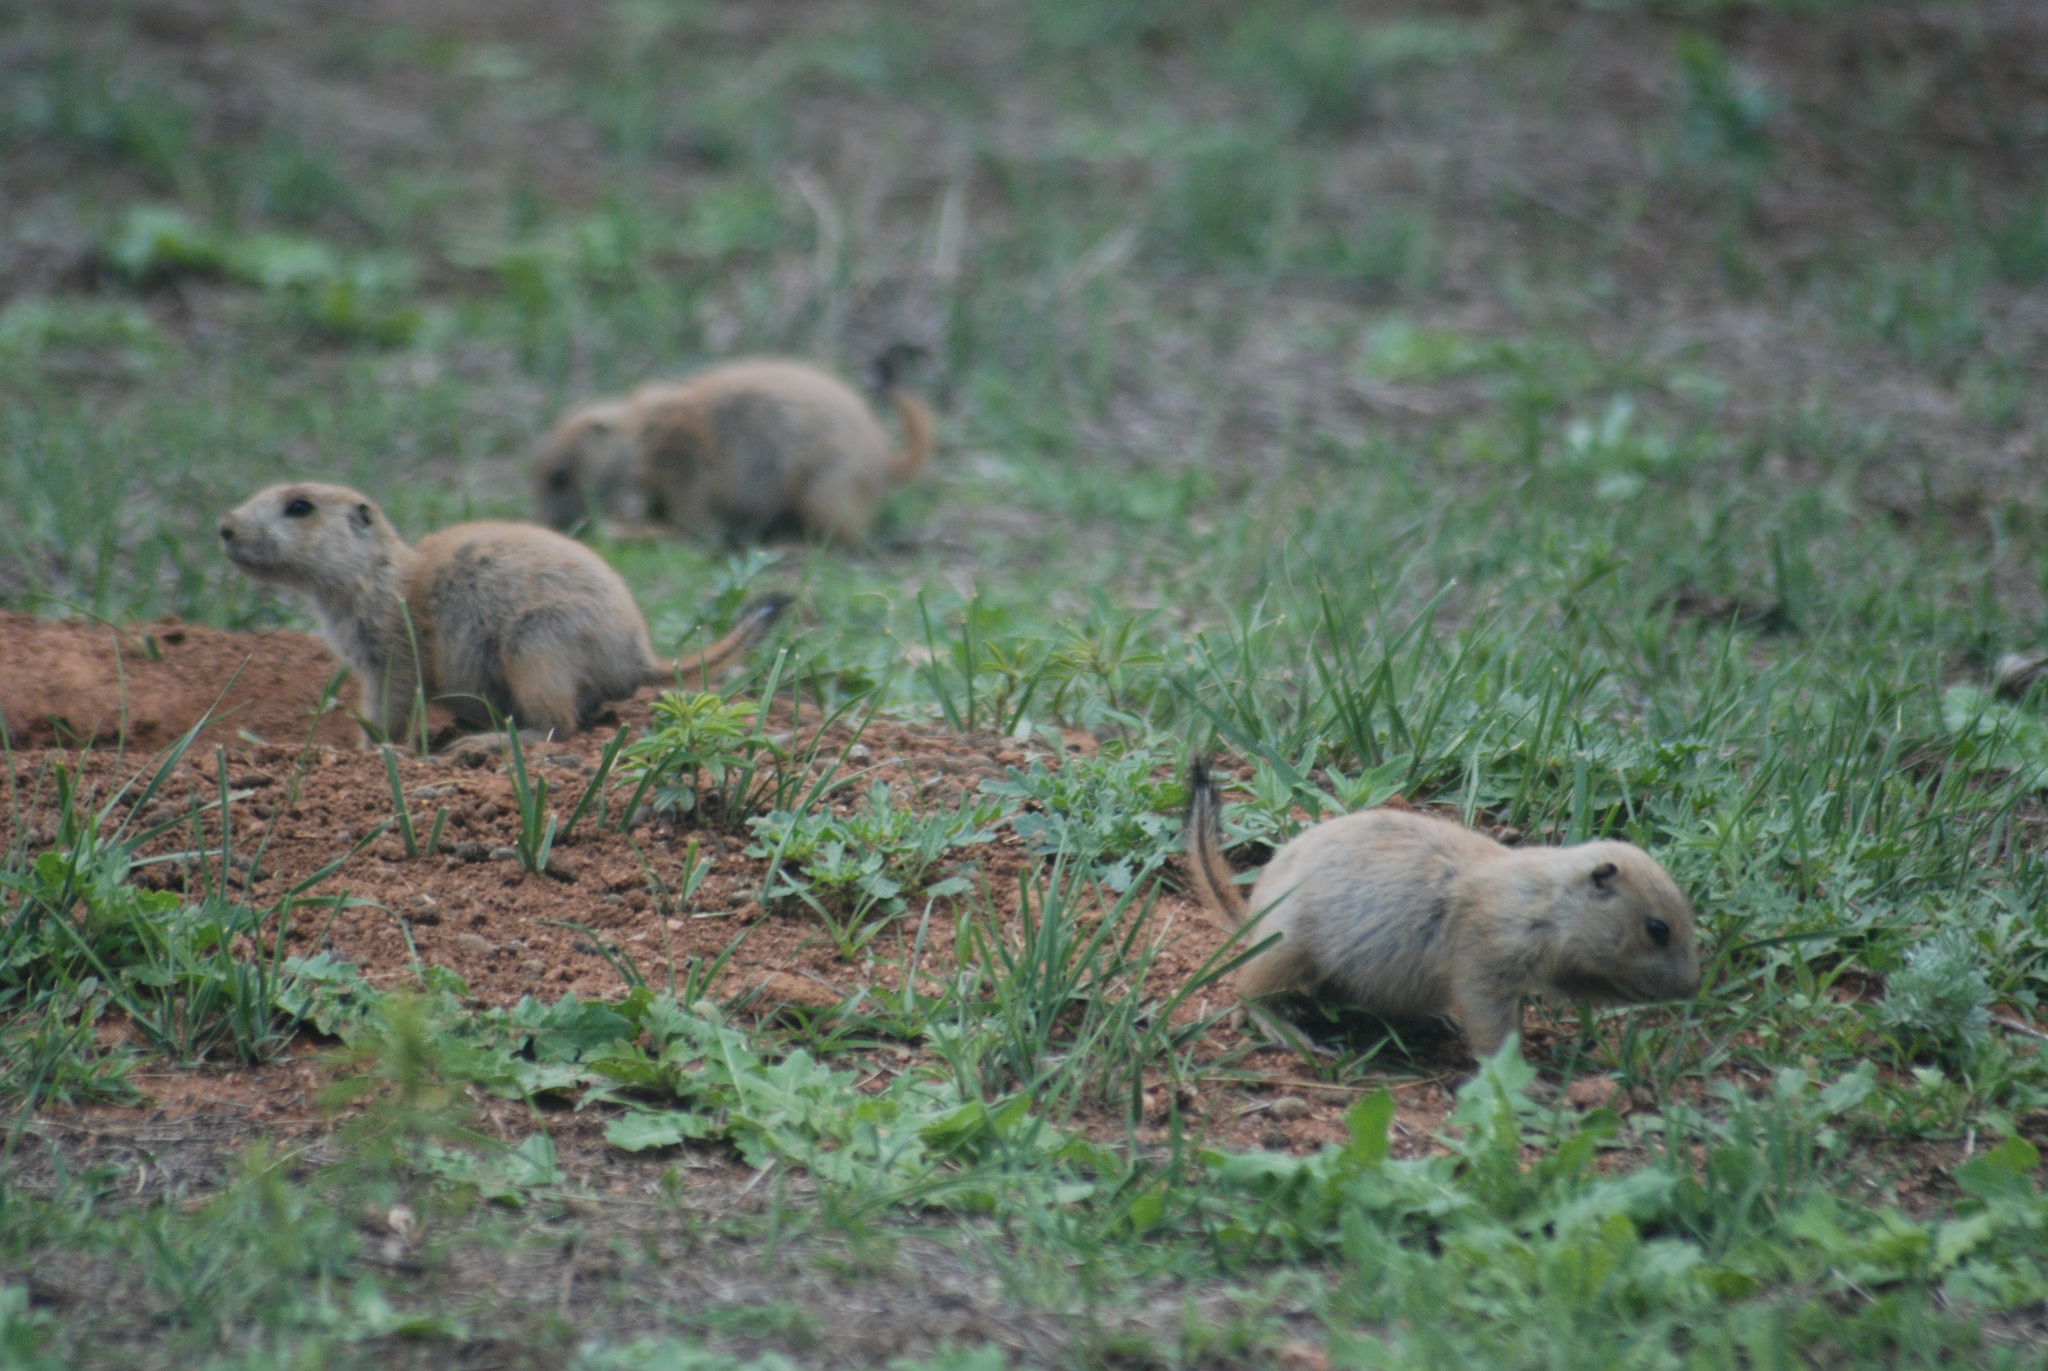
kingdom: Animalia
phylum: Chordata
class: Mammalia
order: Rodentia
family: Sciuridae
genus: Cynomys
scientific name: Cynomys ludovicianus
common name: Black-tailed prairie dog
